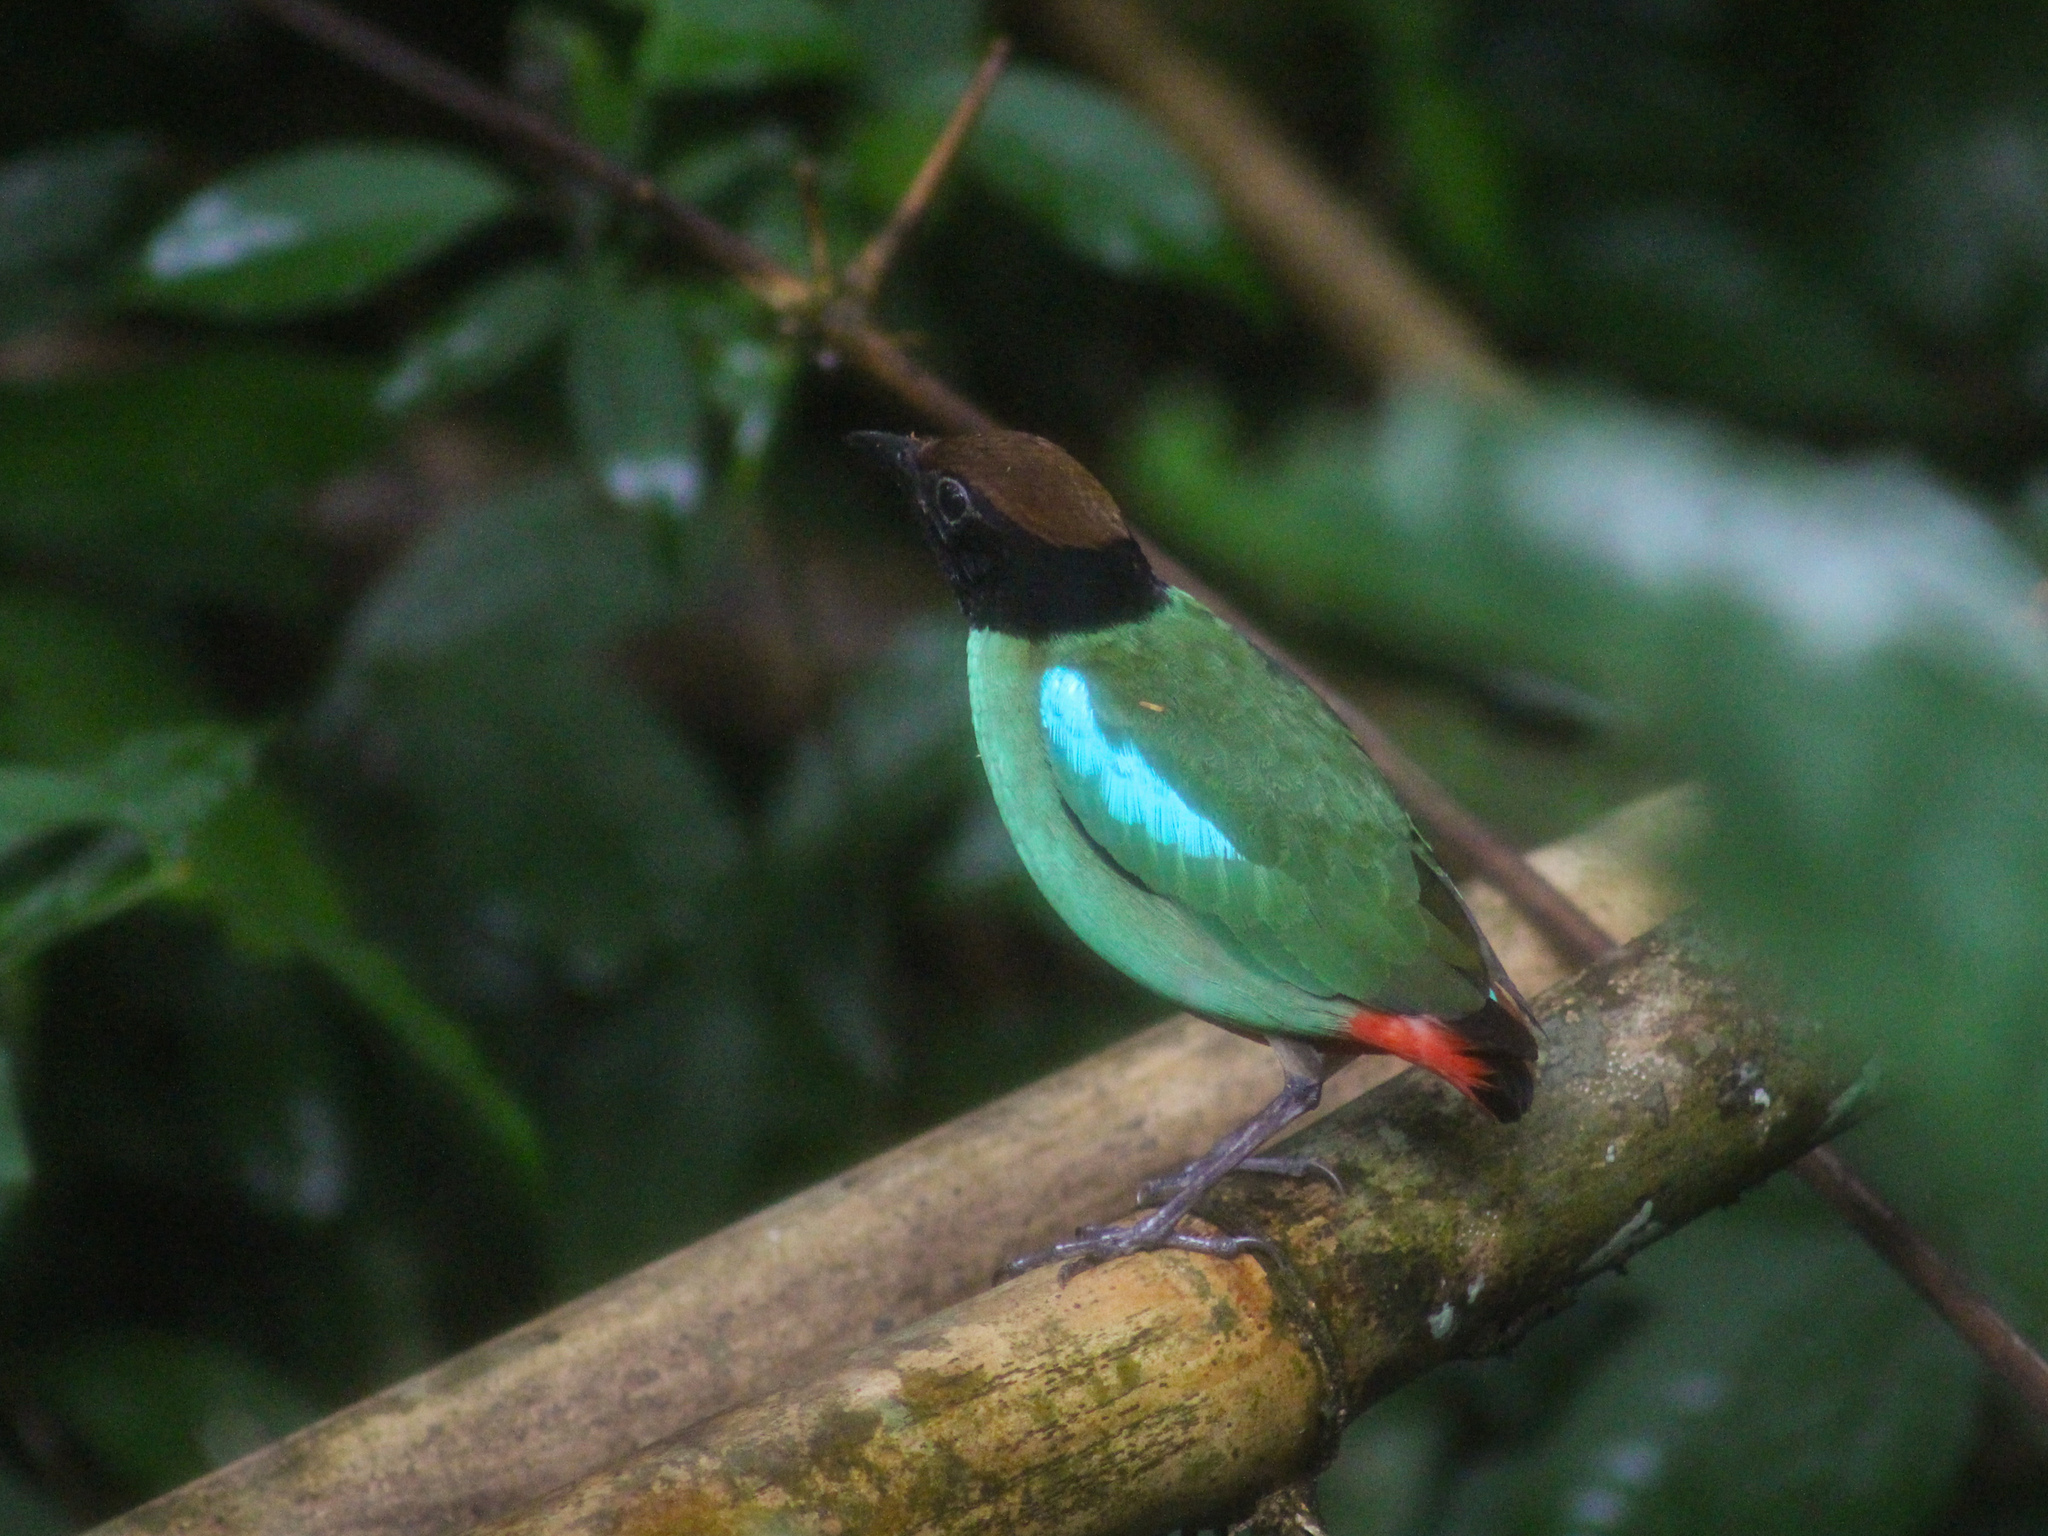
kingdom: Animalia
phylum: Chordata
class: Aves
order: Passeriformes
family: Pittidae
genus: Pitta
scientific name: Pitta sordida
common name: Hooded pitta
